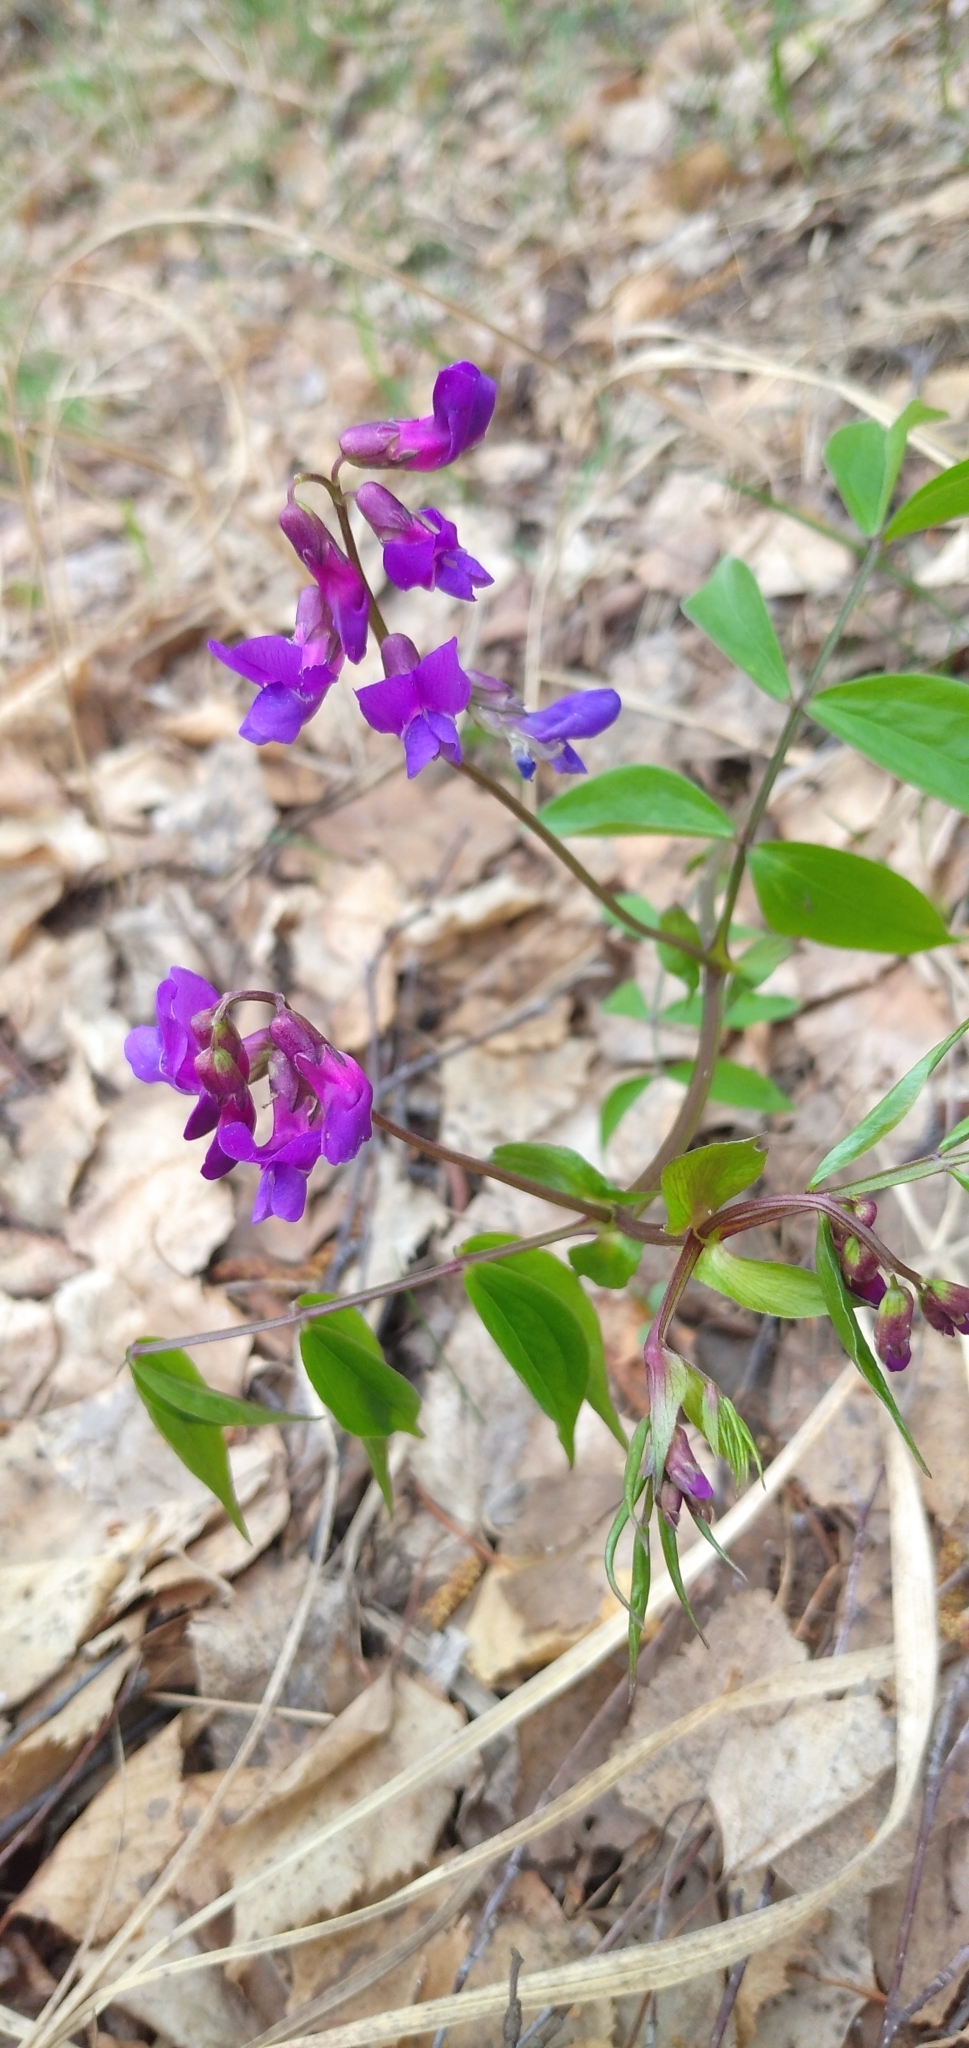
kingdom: Plantae
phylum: Tracheophyta
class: Magnoliopsida
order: Fabales
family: Fabaceae
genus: Lathyrus
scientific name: Lathyrus vernus
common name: Spring pea
